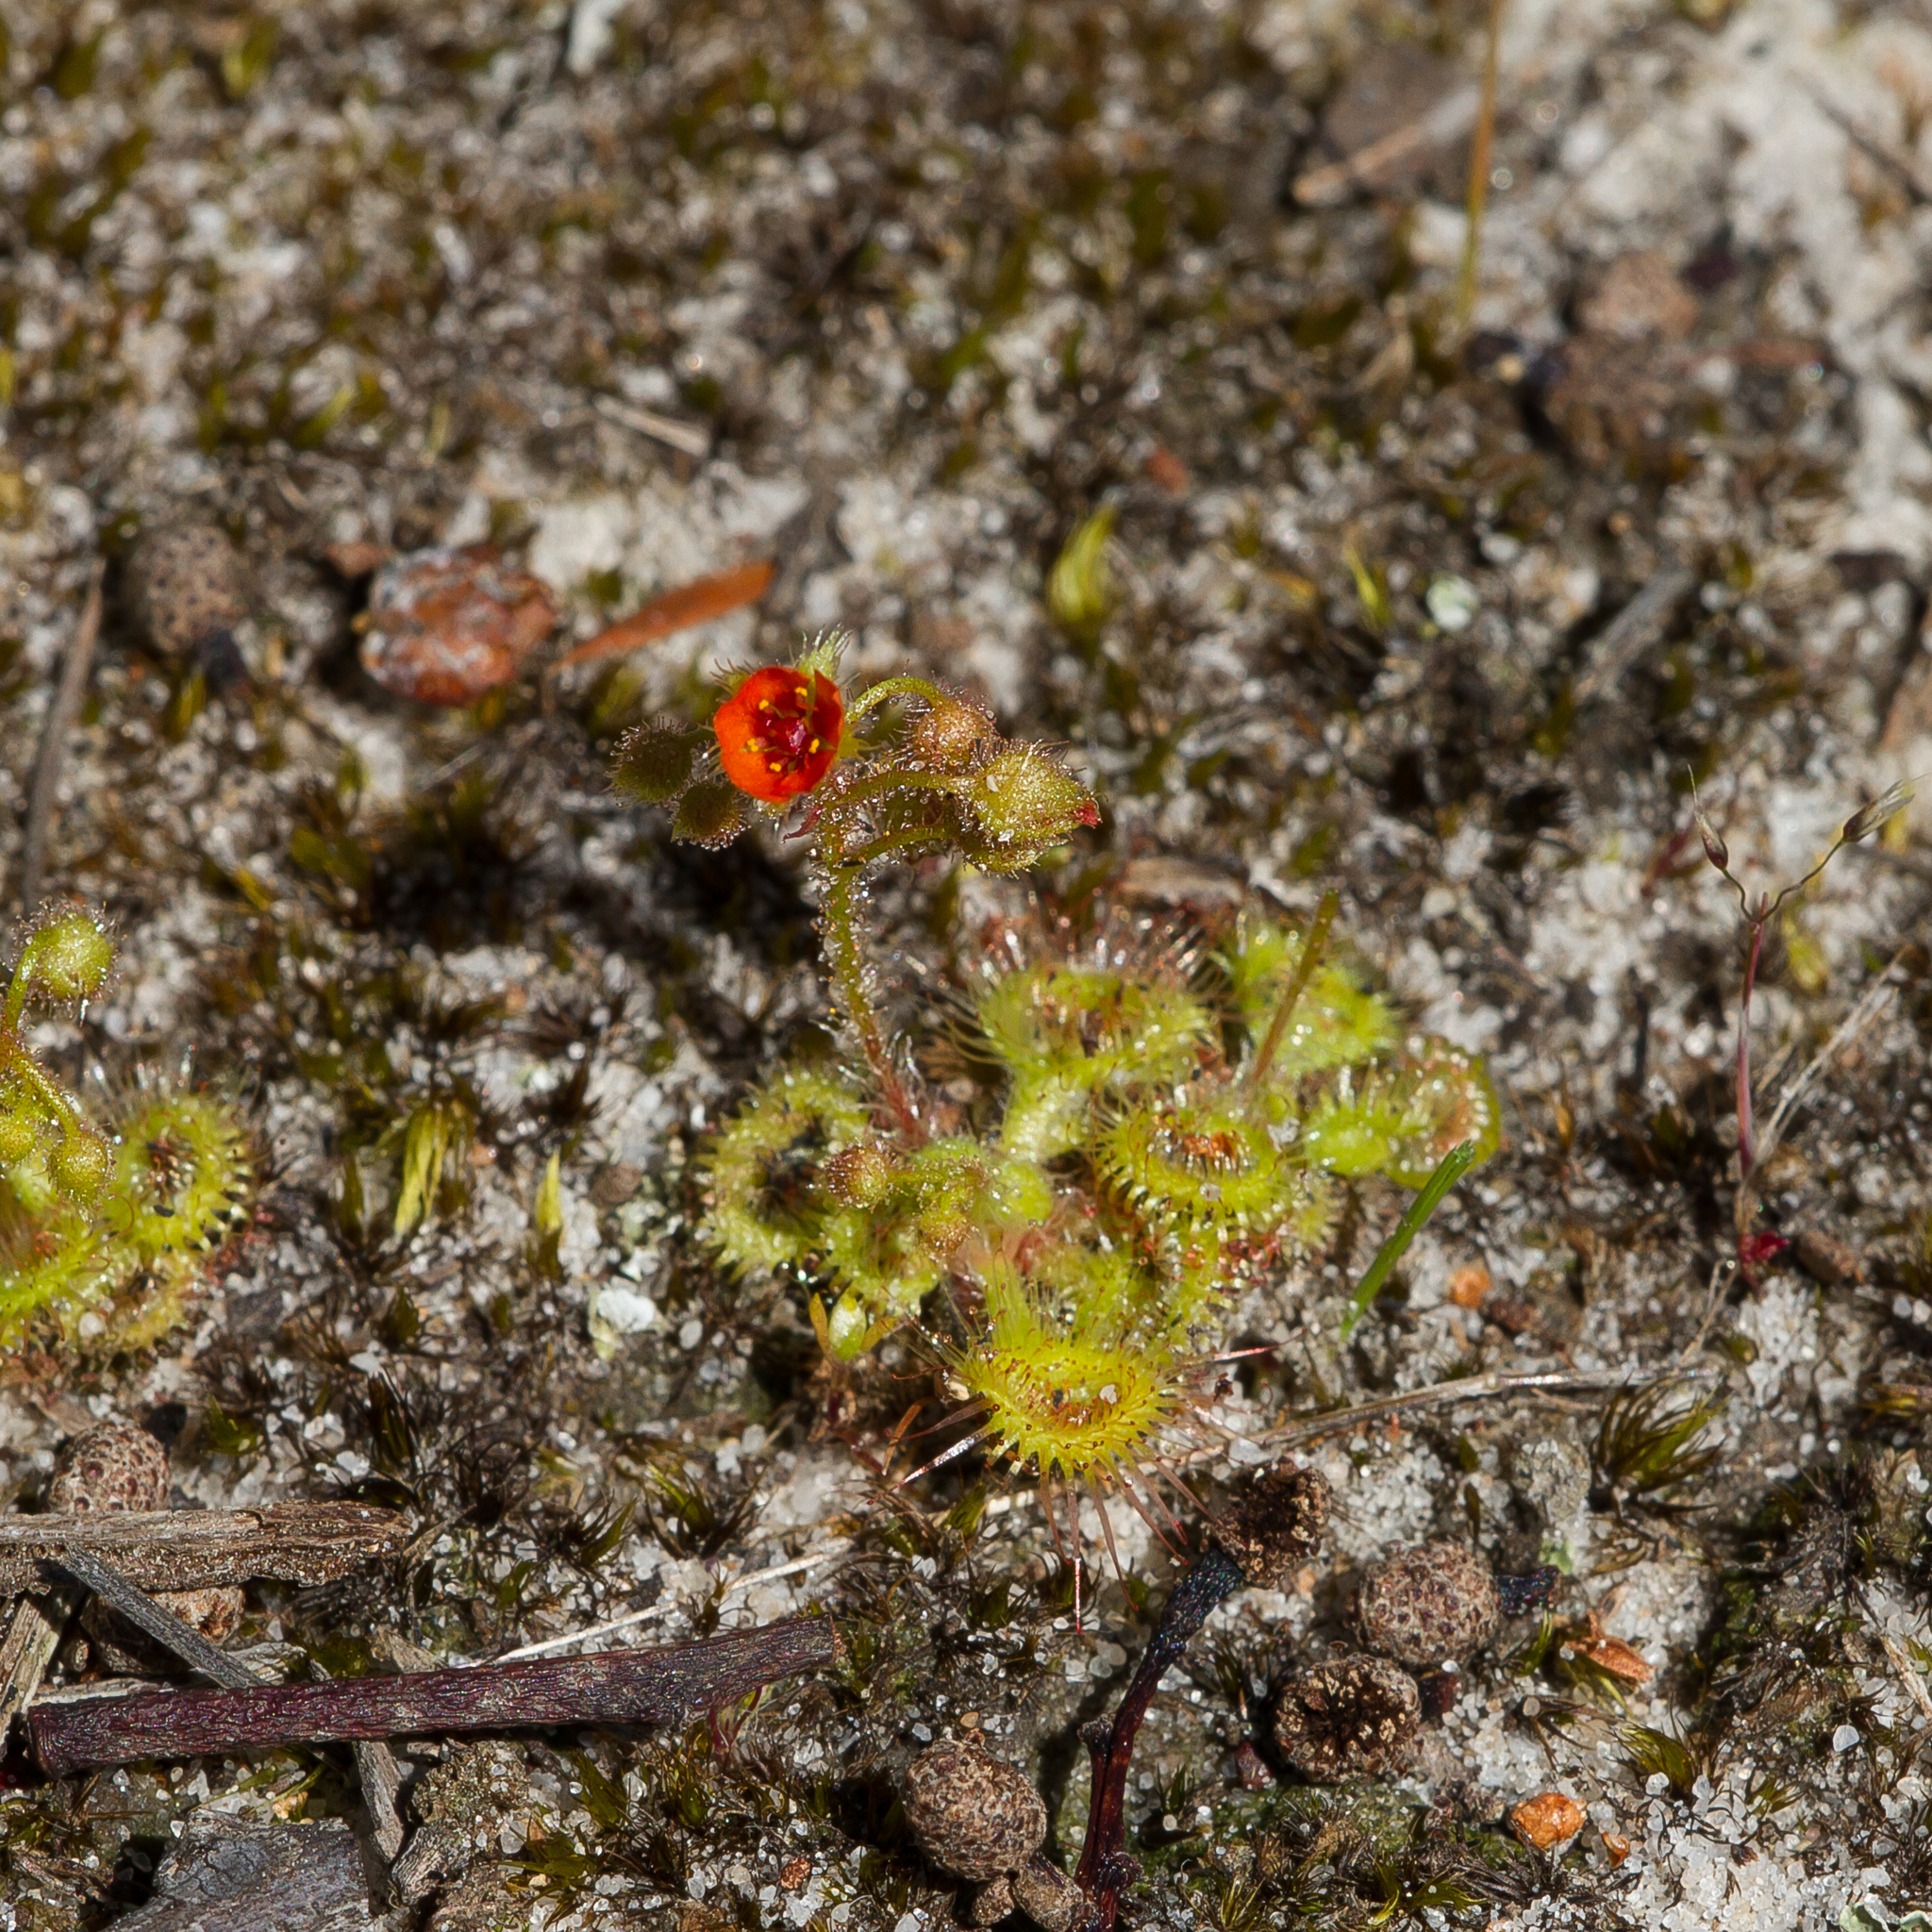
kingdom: Plantae
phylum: Tracheophyta
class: Magnoliopsida
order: Caryophyllales
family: Droseraceae
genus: Drosera
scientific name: Drosera glanduligera
